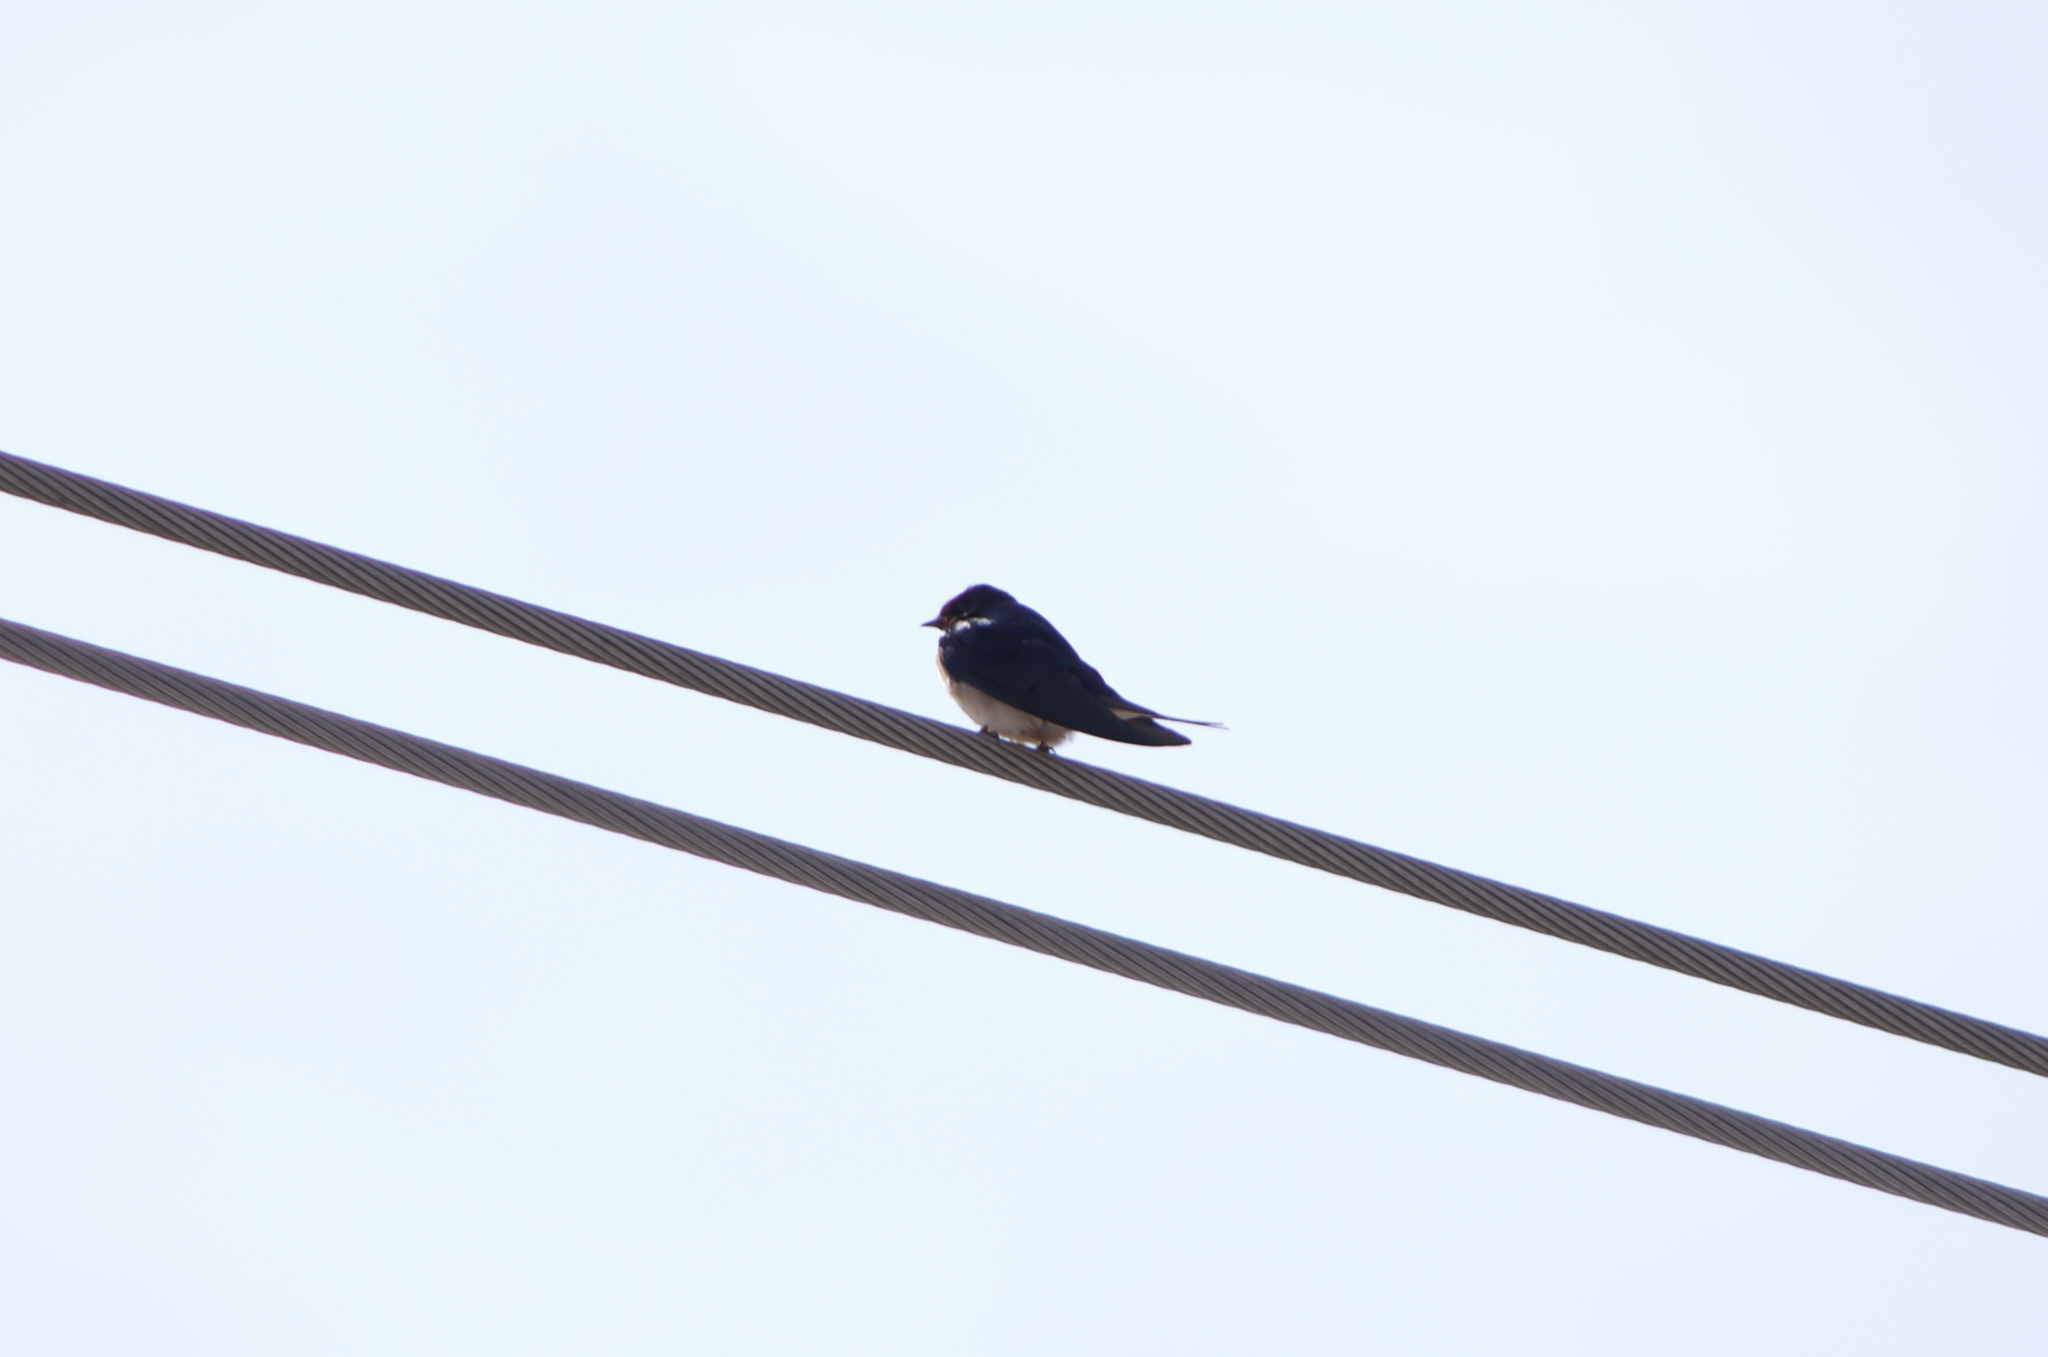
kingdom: Animalia
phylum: Chordata
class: Aves
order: Passeriformes
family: Hirundinidae
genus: Hirundo
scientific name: Hirundo rustica
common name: Barn swallow
